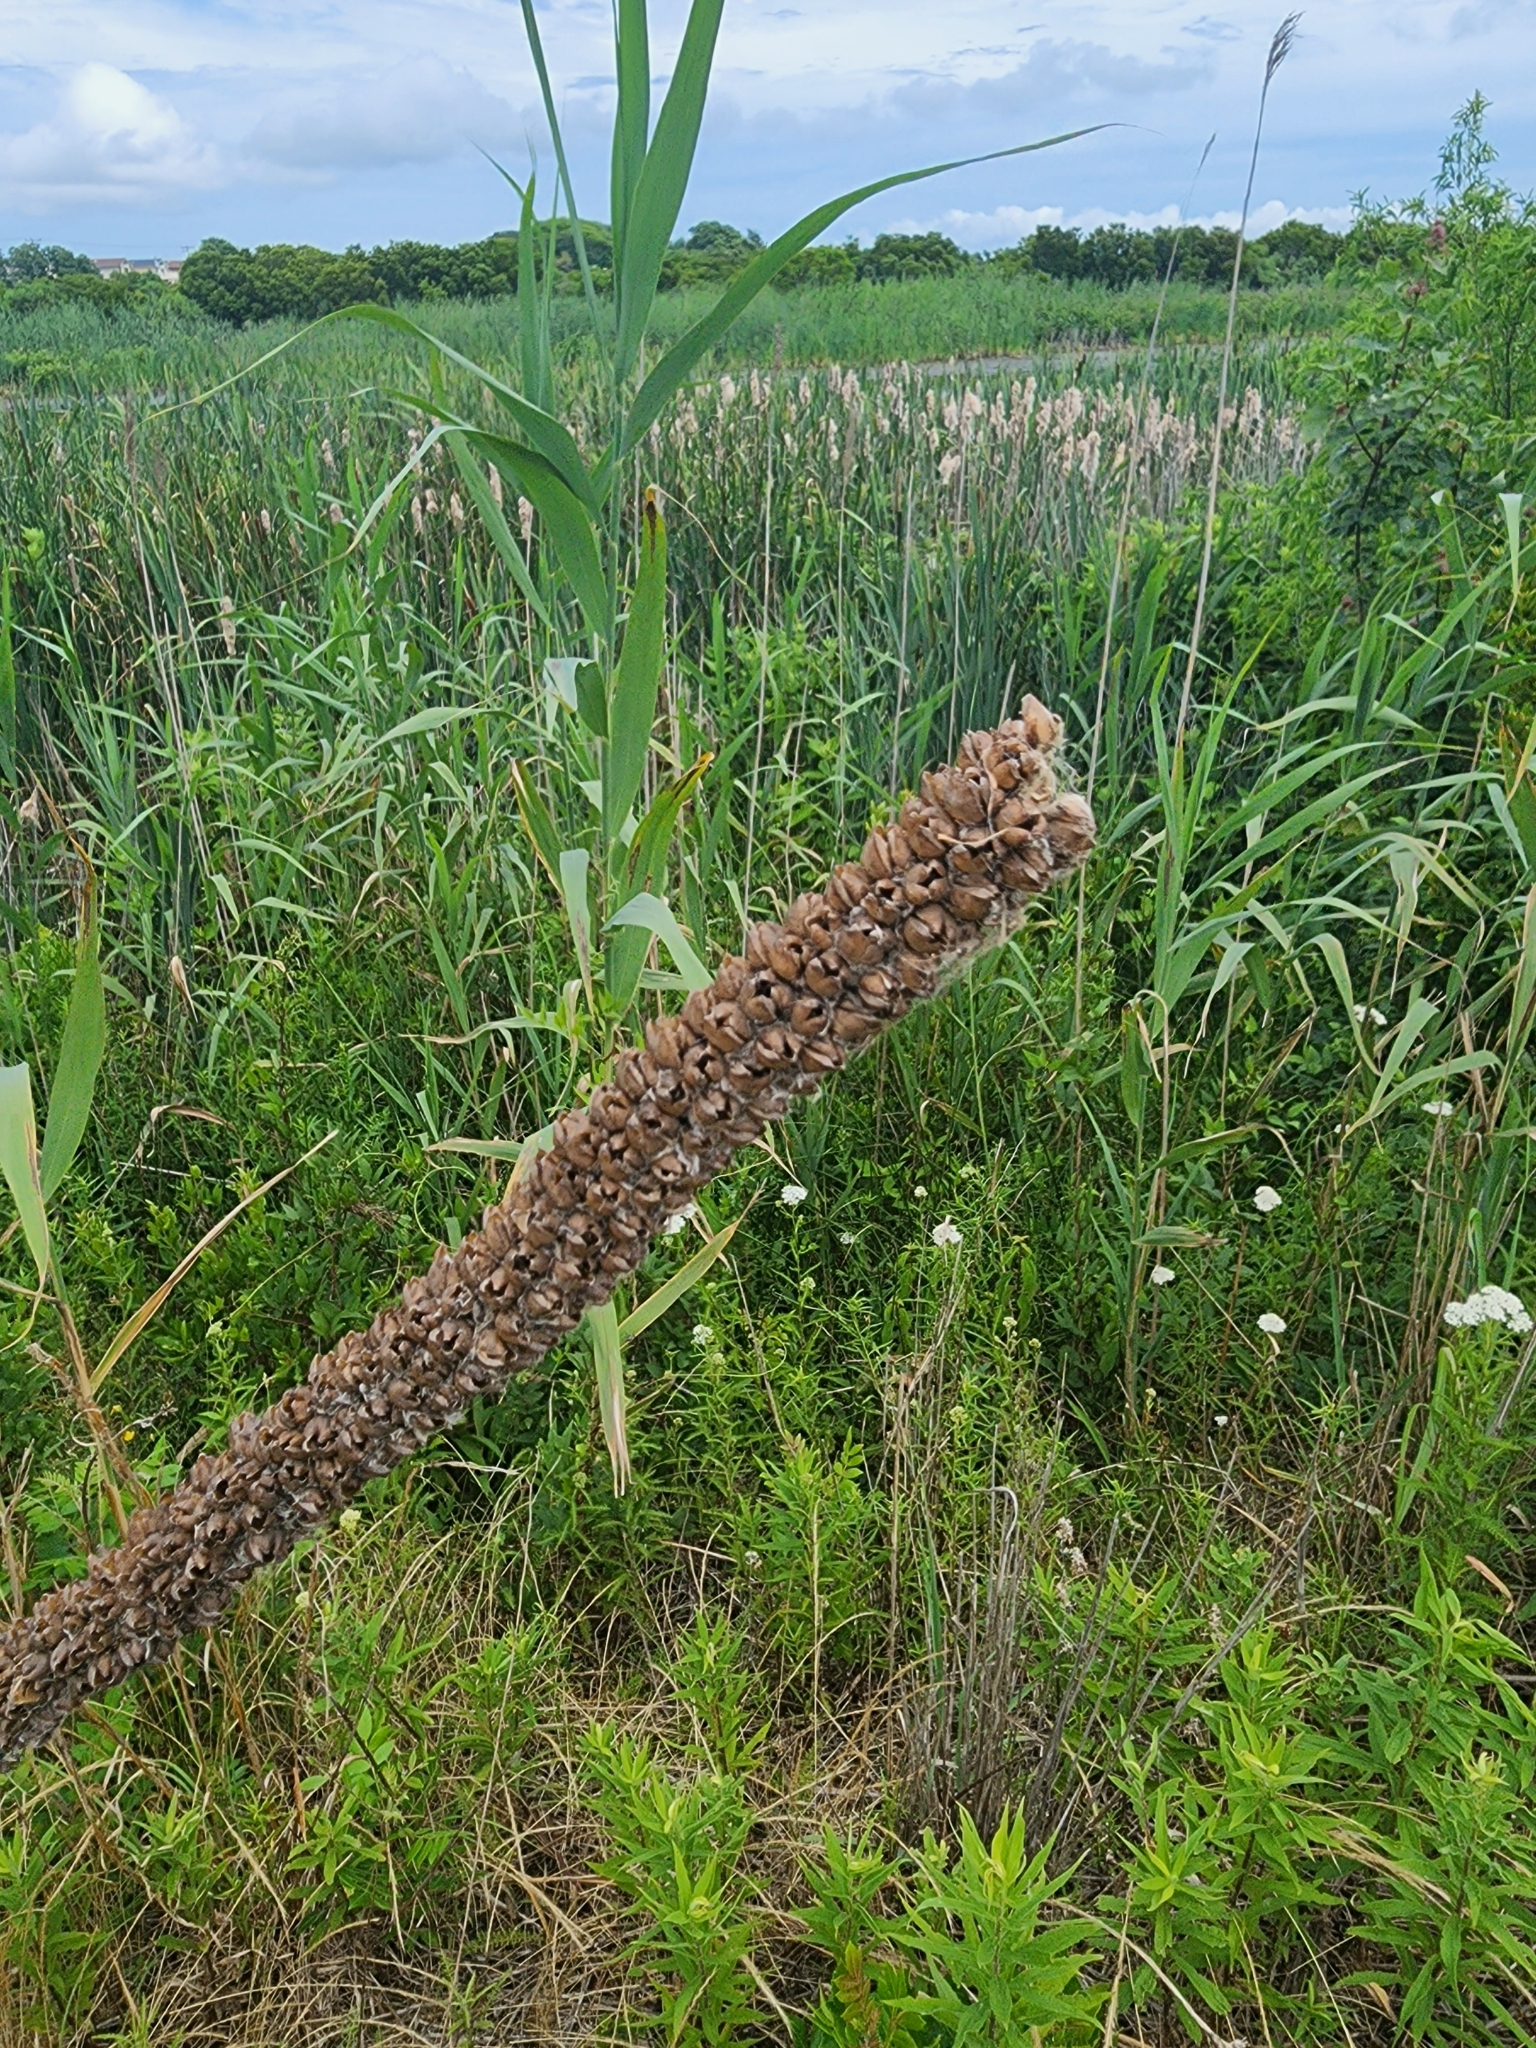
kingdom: Plantae
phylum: Tracheophyta
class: Magnoliopsida
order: Lamiales
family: Scrophulariaceae
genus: Verbascum
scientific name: Verbascum thapsus
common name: Common mullein
